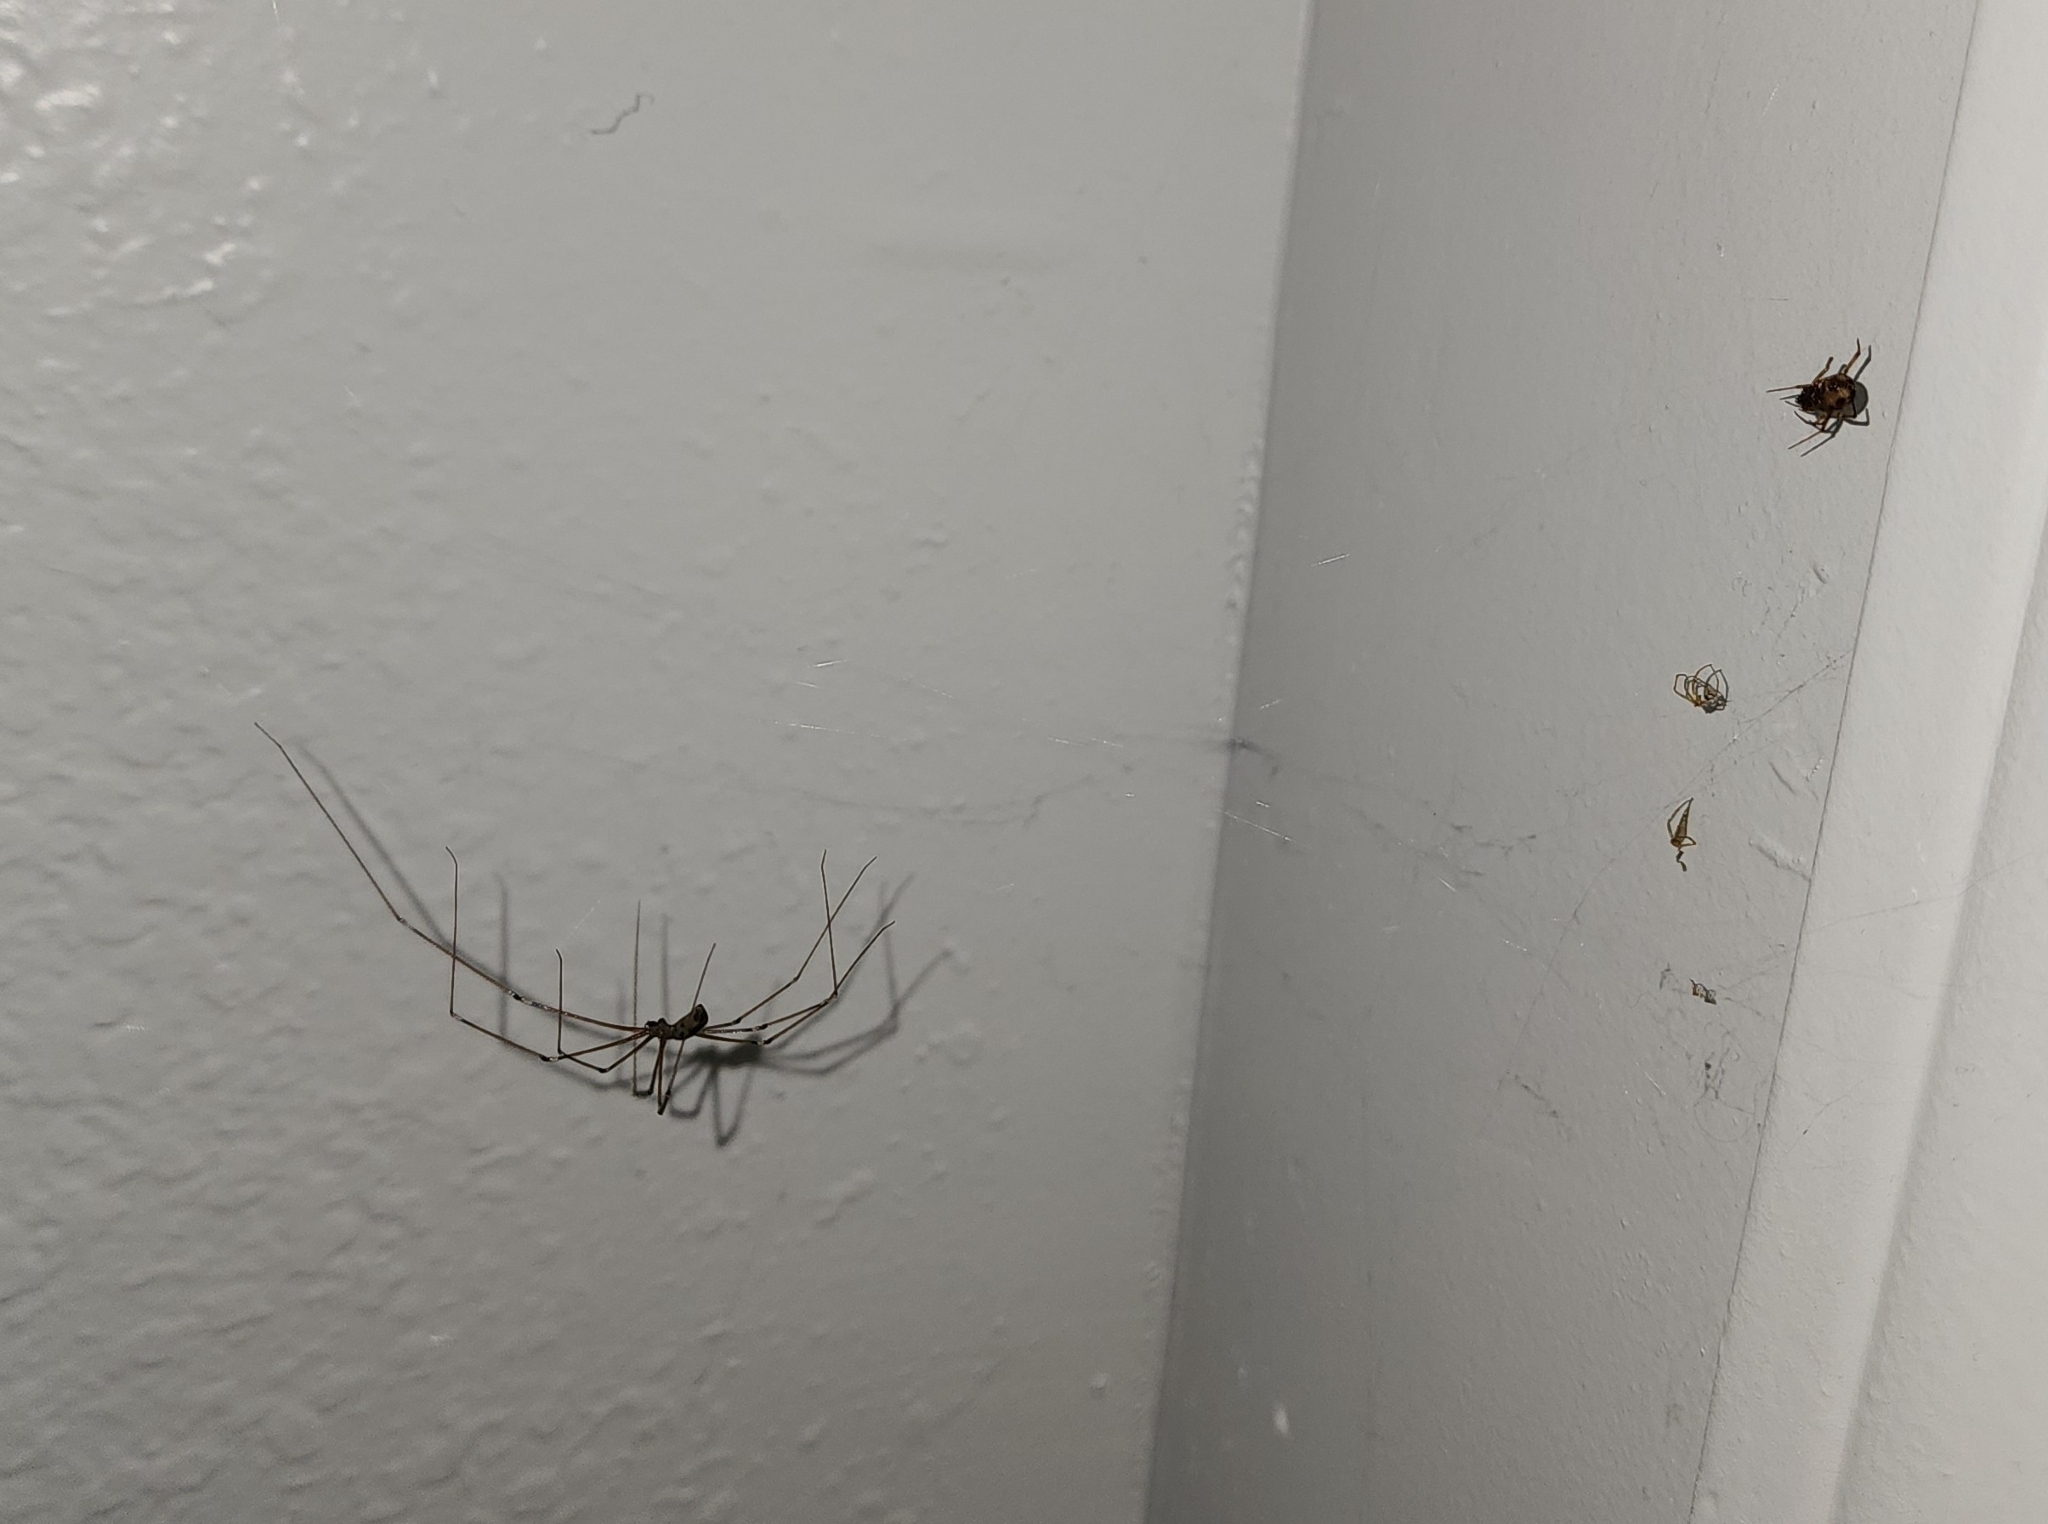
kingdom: Animalia
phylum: Arthropoda
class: Arachnida
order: Araneae
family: Pholcidae
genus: Pholcus
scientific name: Pholcus phalangioides
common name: Longbodied cellar spider
